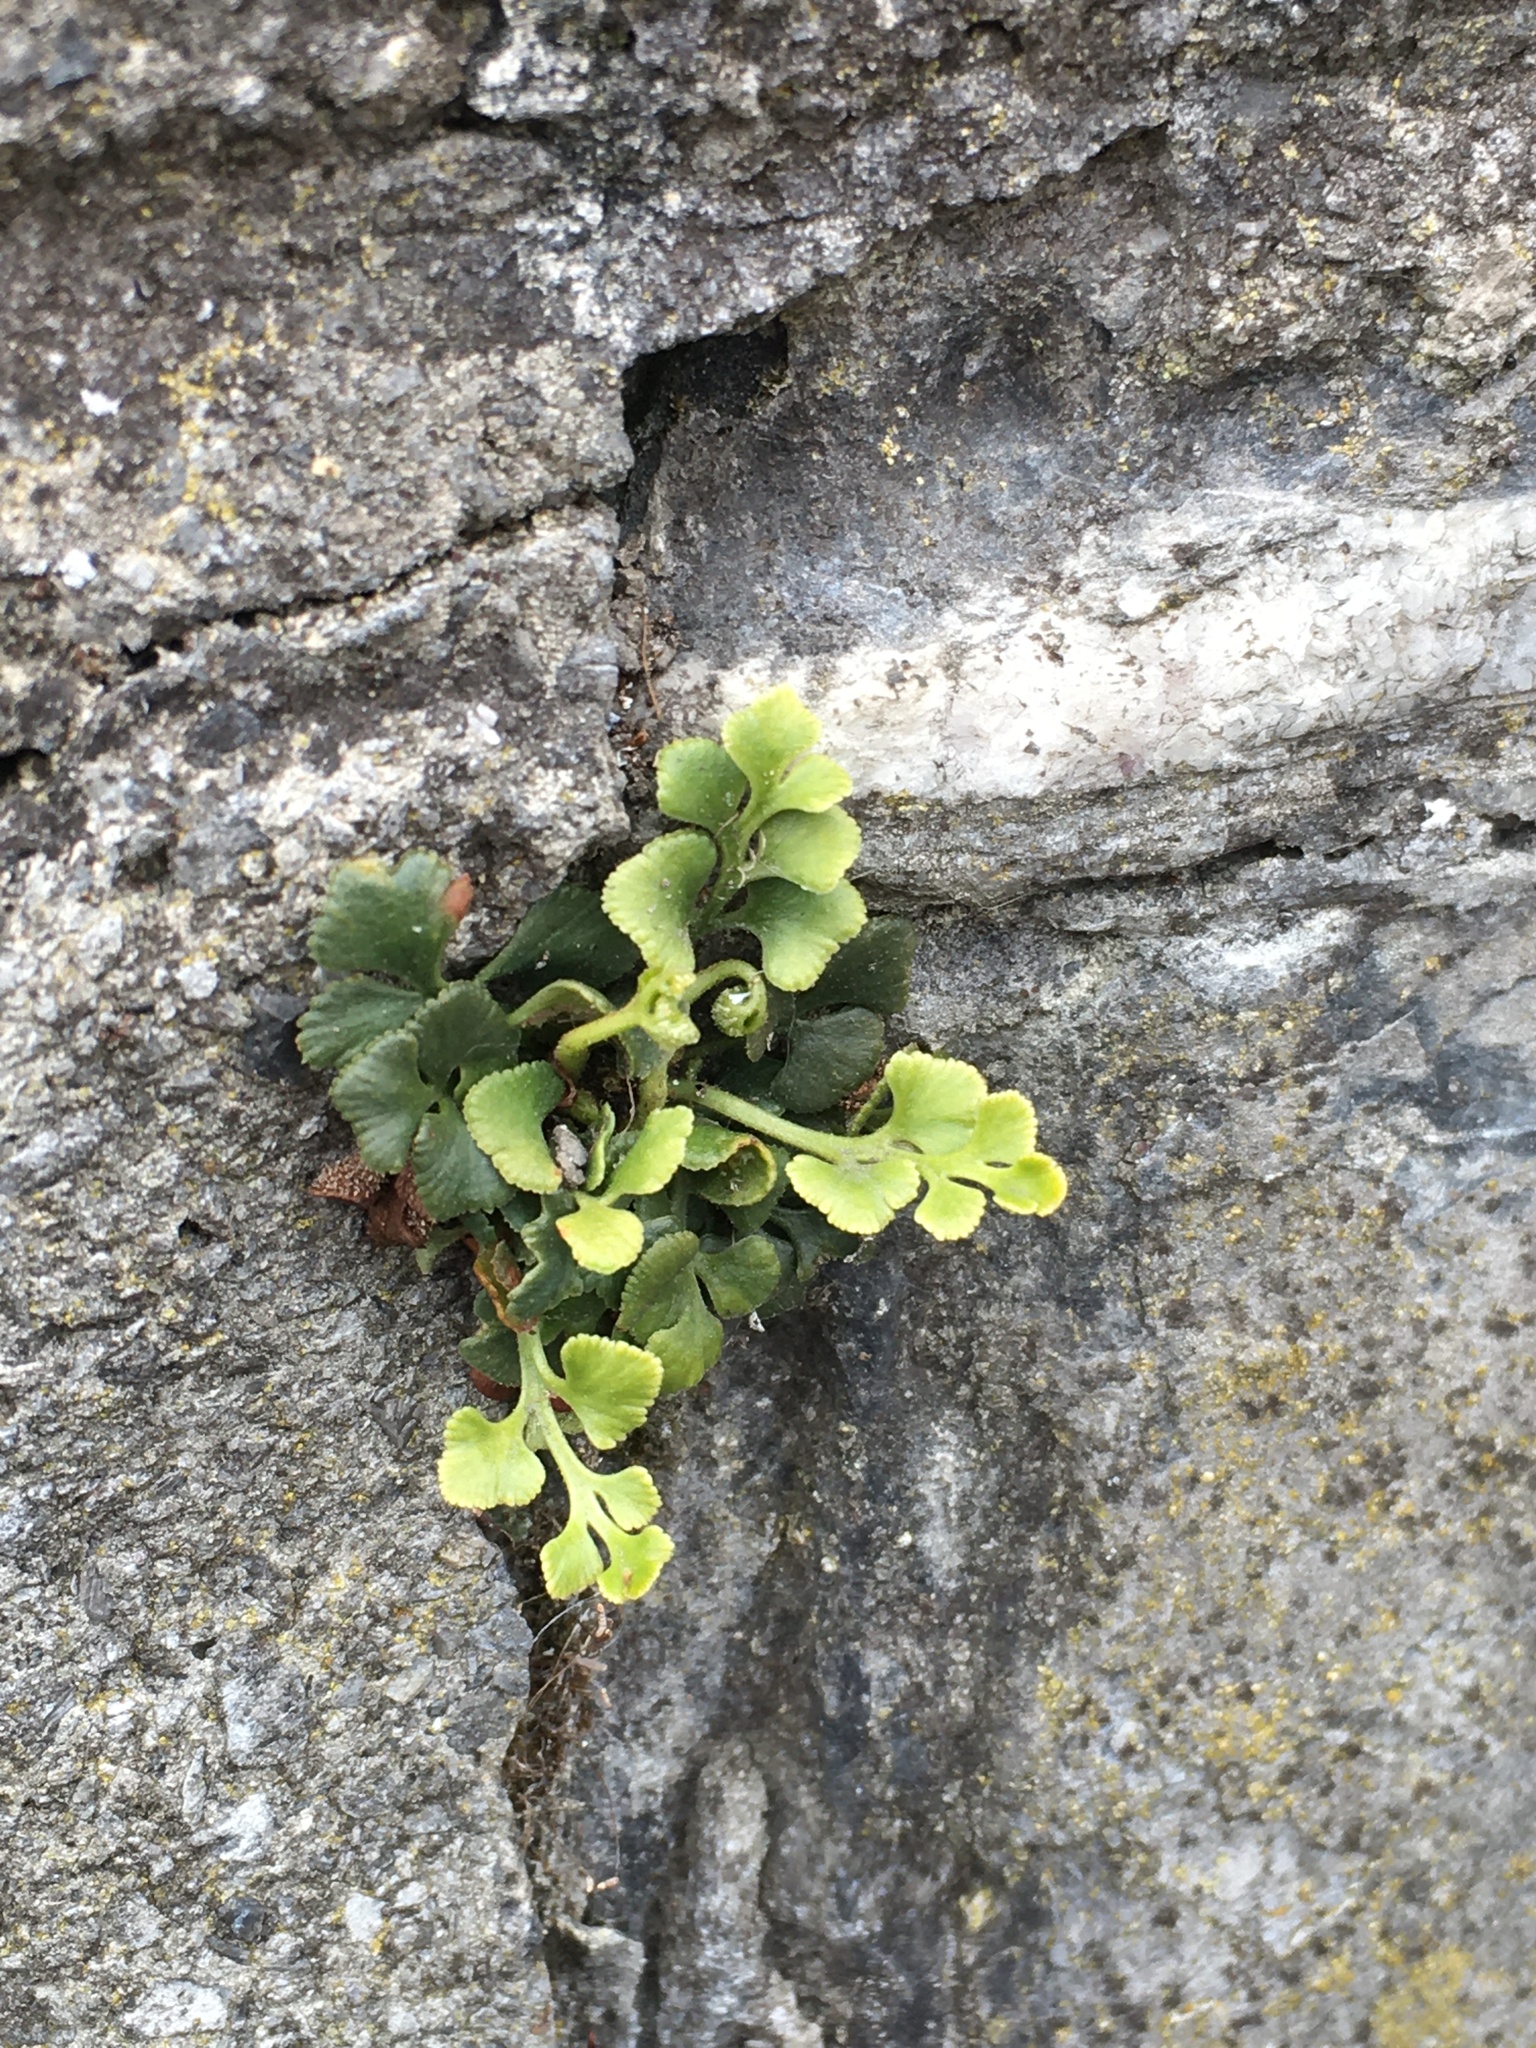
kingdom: Plantae
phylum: Tracheophyta
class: Polypodiopsida
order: Polypodiales
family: Aspleniaceae
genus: Asplenium
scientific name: Asplenium ruta-muraria
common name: Wall-rue
